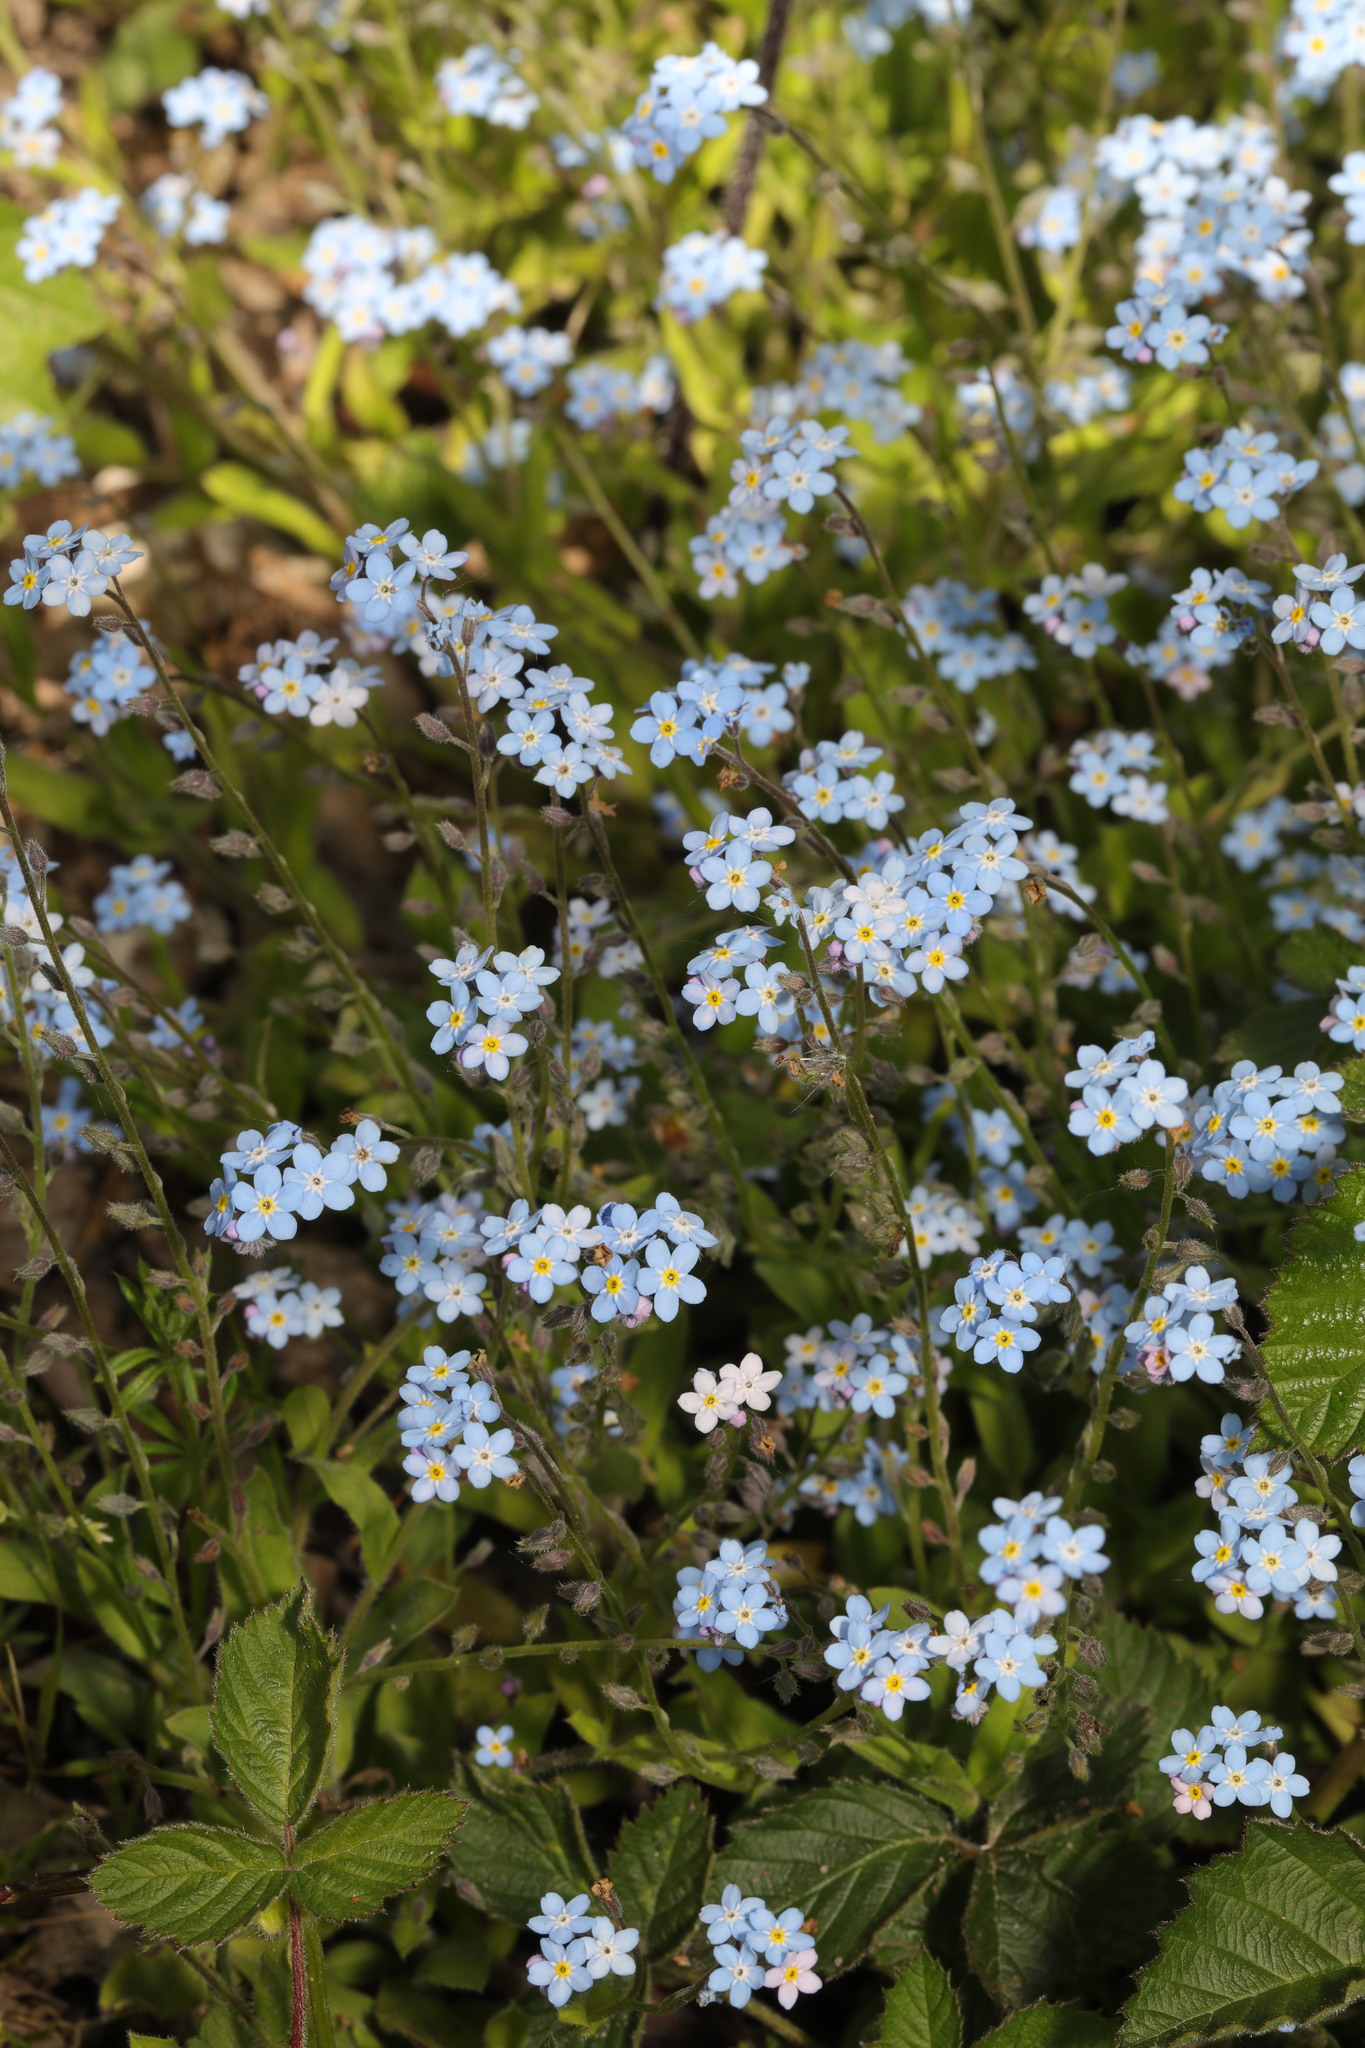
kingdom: Plantae
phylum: Tracheophyta
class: Magnoliopsida
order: Boraginales
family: Boraginaceae
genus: Myosotis
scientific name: Myosotis sylvatica
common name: Wood forget-me-not
